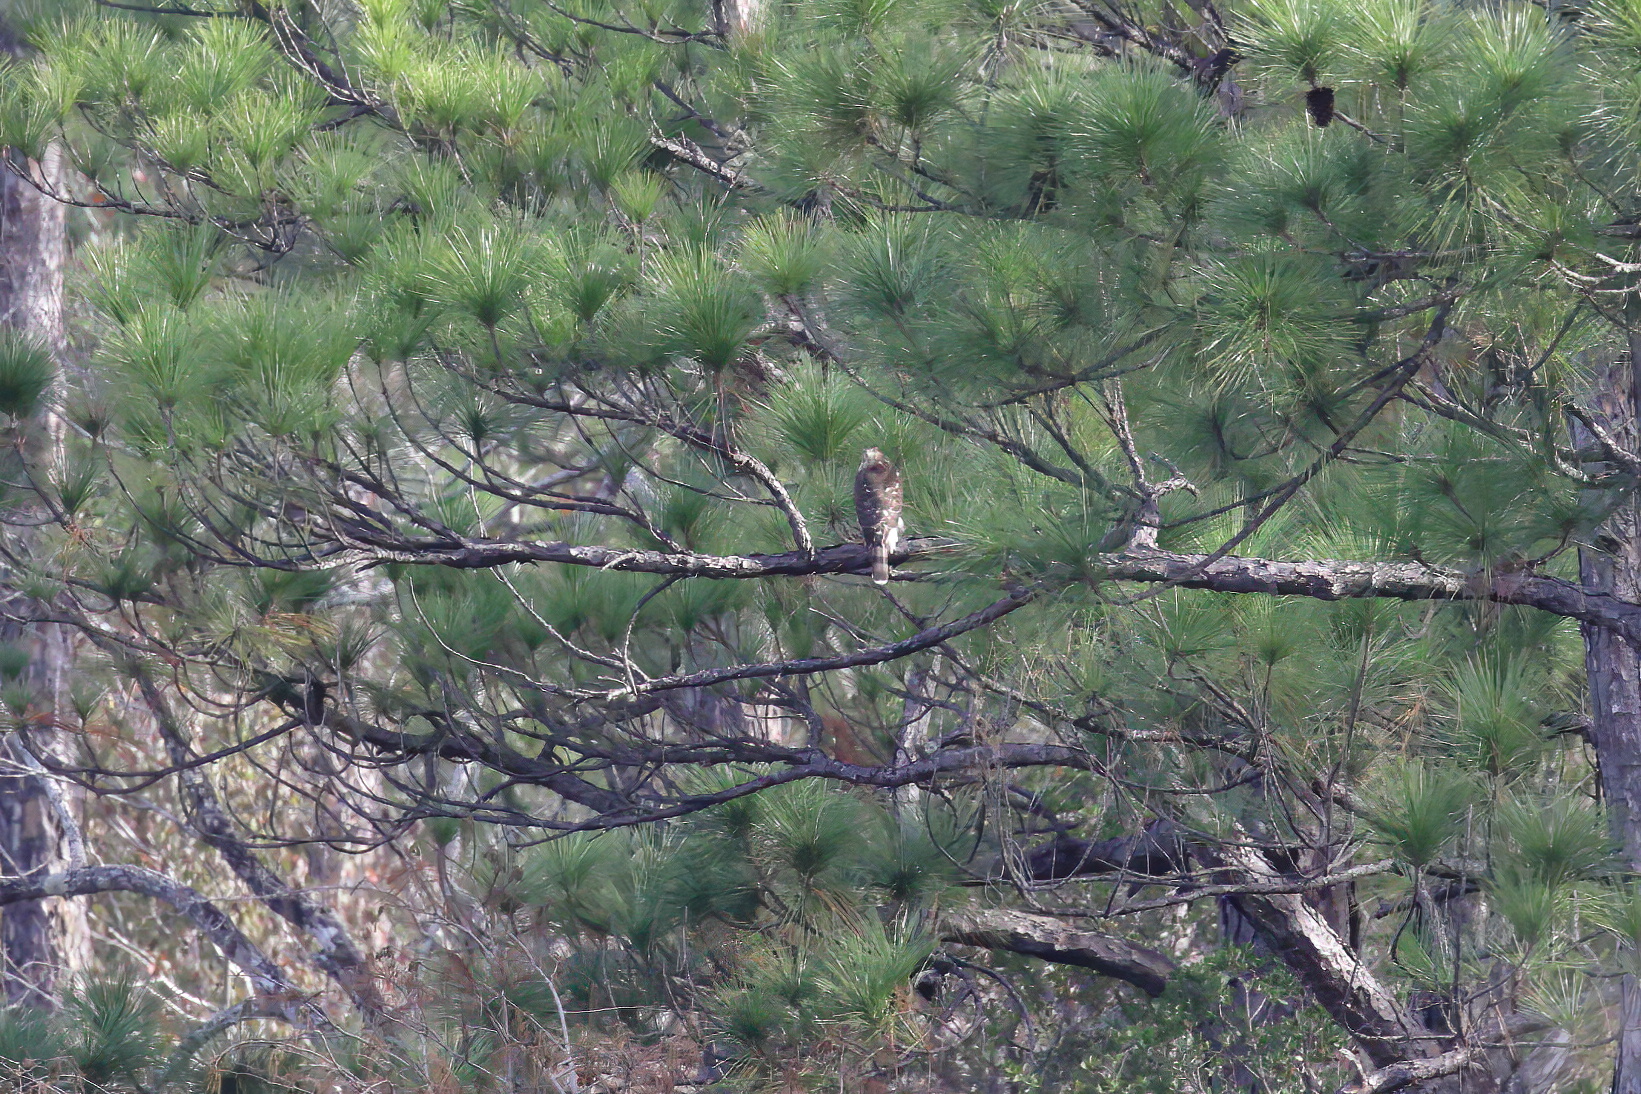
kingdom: Animalia
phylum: Chordata
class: Aves
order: Accipitriformes
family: Accipitridae
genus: Accipiter
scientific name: Accipiter cooperii
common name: Cooper's hawk
